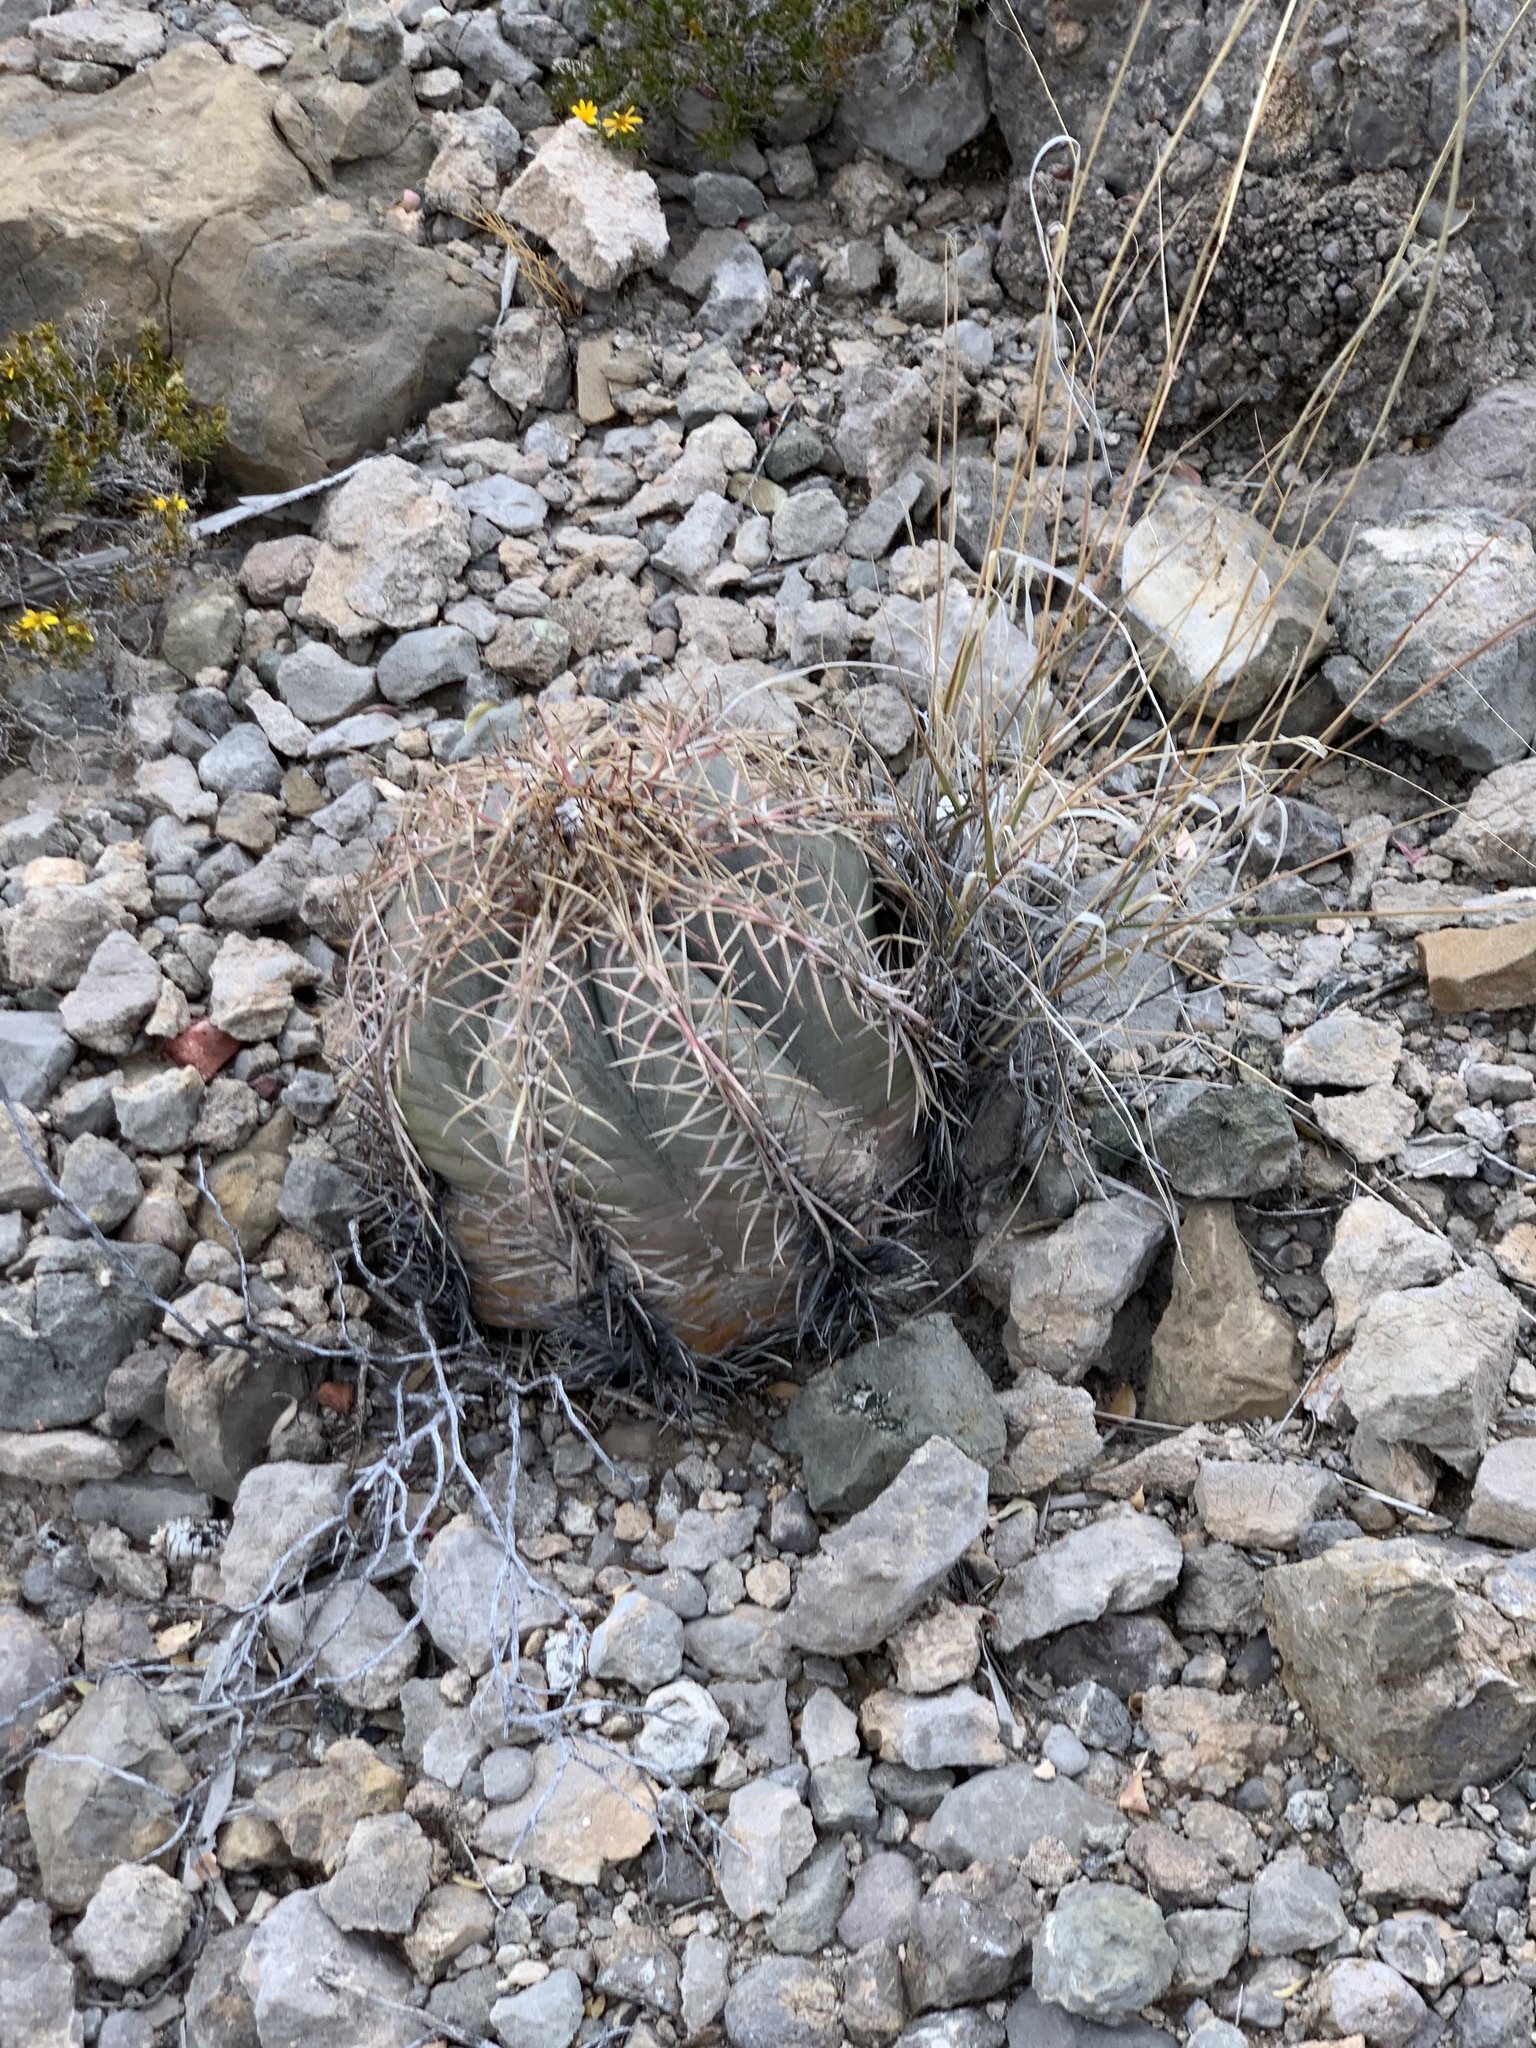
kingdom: Plantae
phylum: Tracheophyta
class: Magnoliopsida
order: Caryophyllales
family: Cactaceae
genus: Echinocactus
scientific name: Echinocactus horizonthalonius
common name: Devilshead
